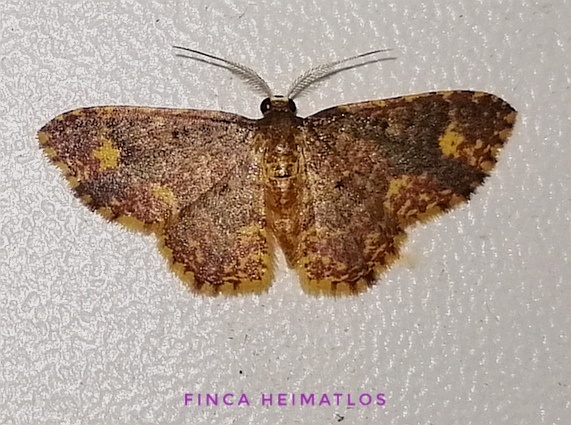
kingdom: Animalia
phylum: Arthropoda
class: Insecta
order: Lepidoptera
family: Geometridae
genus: Eois
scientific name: Eois lunifera
